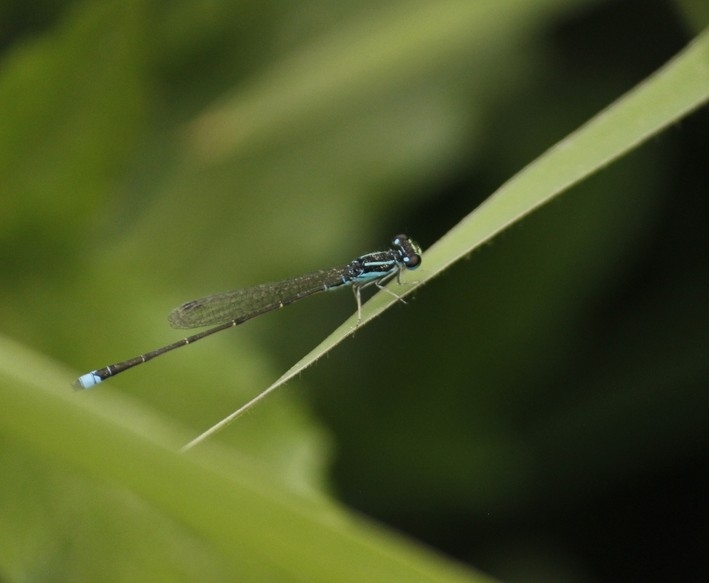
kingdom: Animalia
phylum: Arthropoda
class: Insecta
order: Odonata
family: Coenagrionidae
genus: Ischnura
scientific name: Ischnura capreolus
